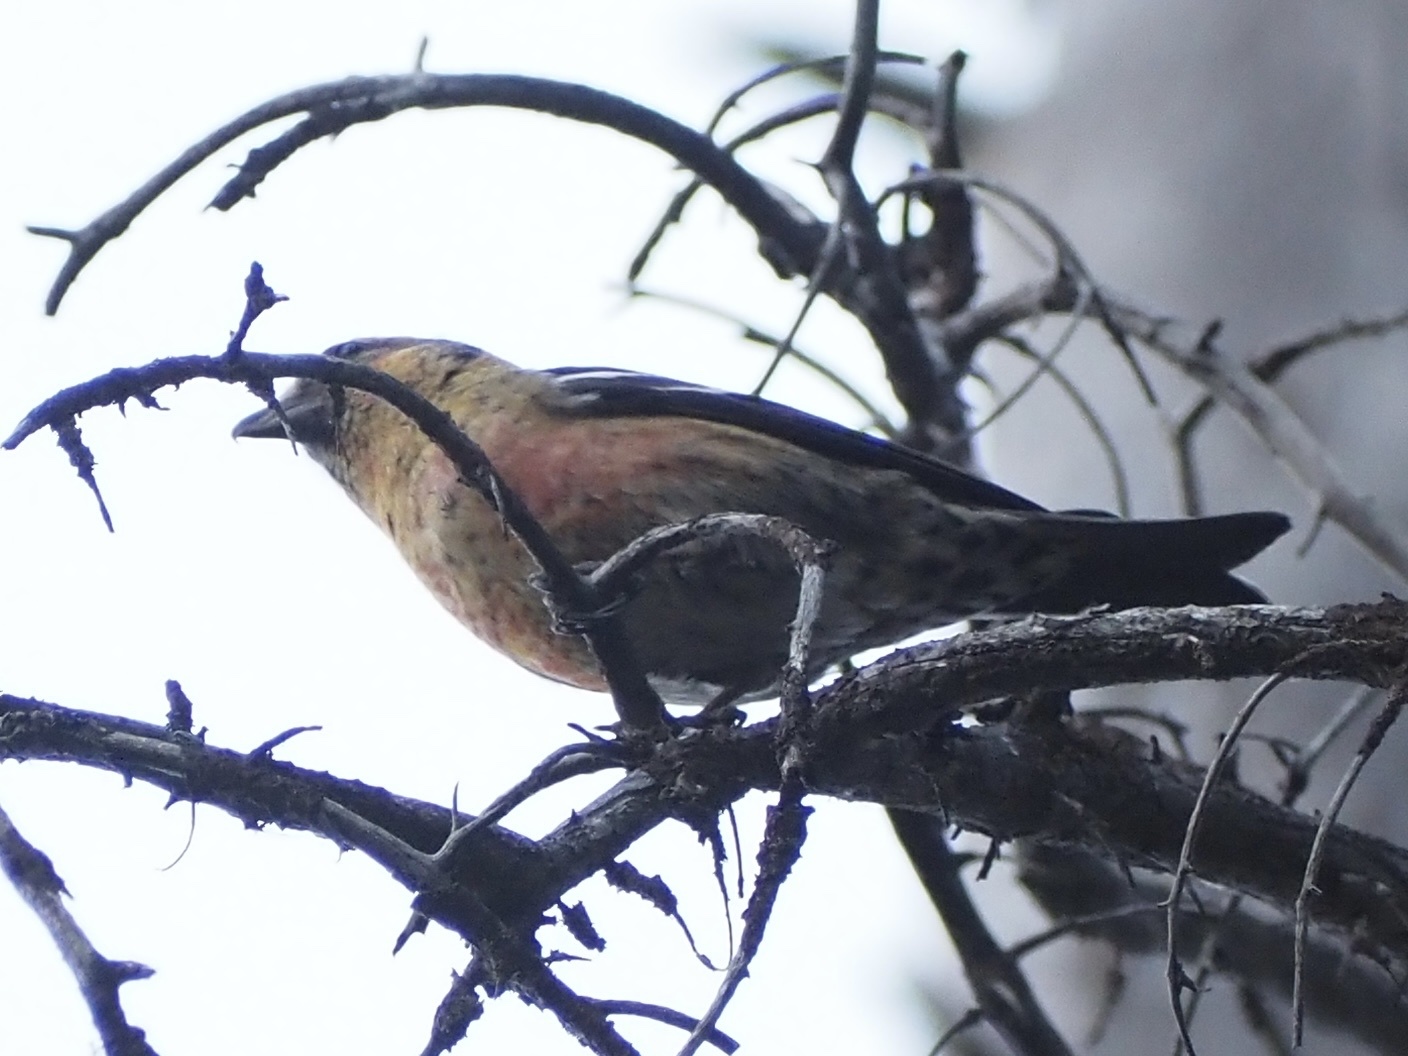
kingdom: Animalia
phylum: Chordata
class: Aves
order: Passeriformes
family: Fringillidae
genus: Loxia
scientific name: Loxia leucoptera
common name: Two-barred crossbill
